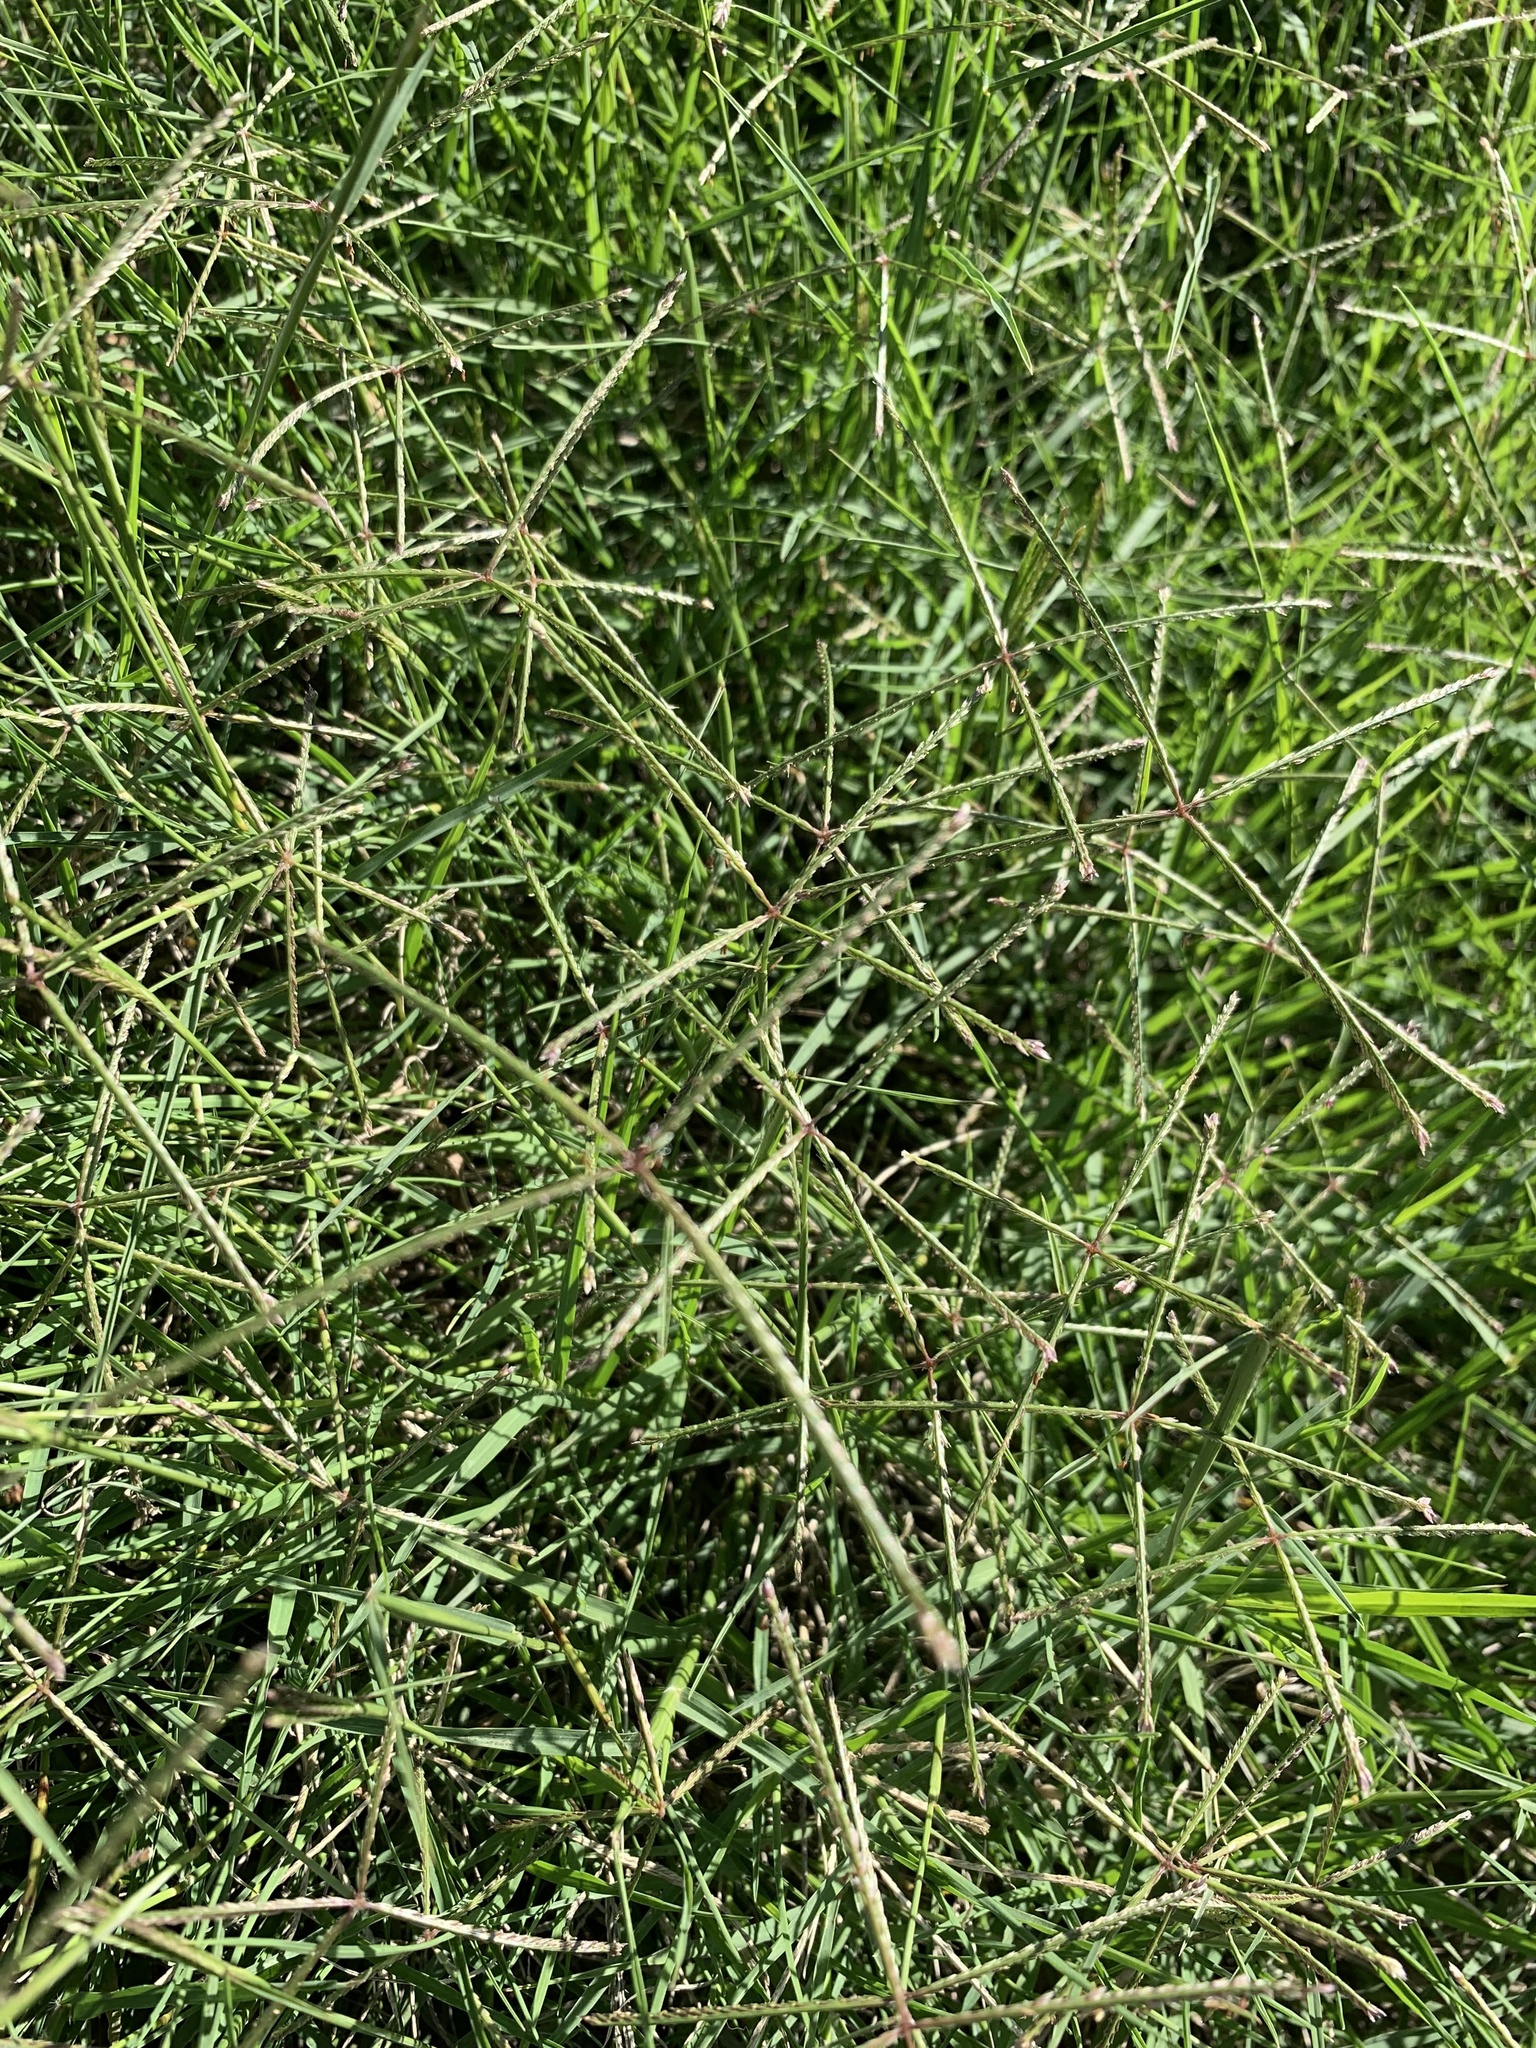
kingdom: Plantae
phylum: Tracheophyta
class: Liliopsida
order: Poales
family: Poaceae
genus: Cynodon
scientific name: Cynodon dactylon
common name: Bermuda grass
